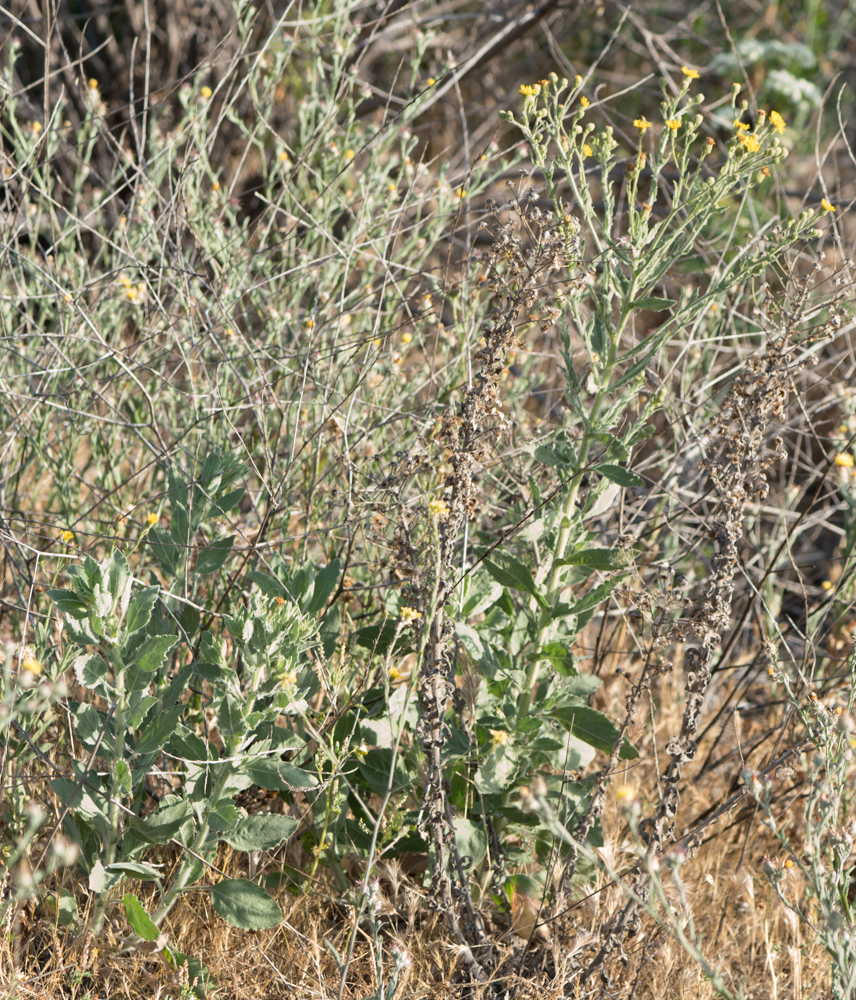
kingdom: Plantae
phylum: Tracheophyta
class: Magnoliopsida
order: Asterales
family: Asteraceae
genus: Heterotheca
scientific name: Heterotheca grandiflora
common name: Telegraphweed
